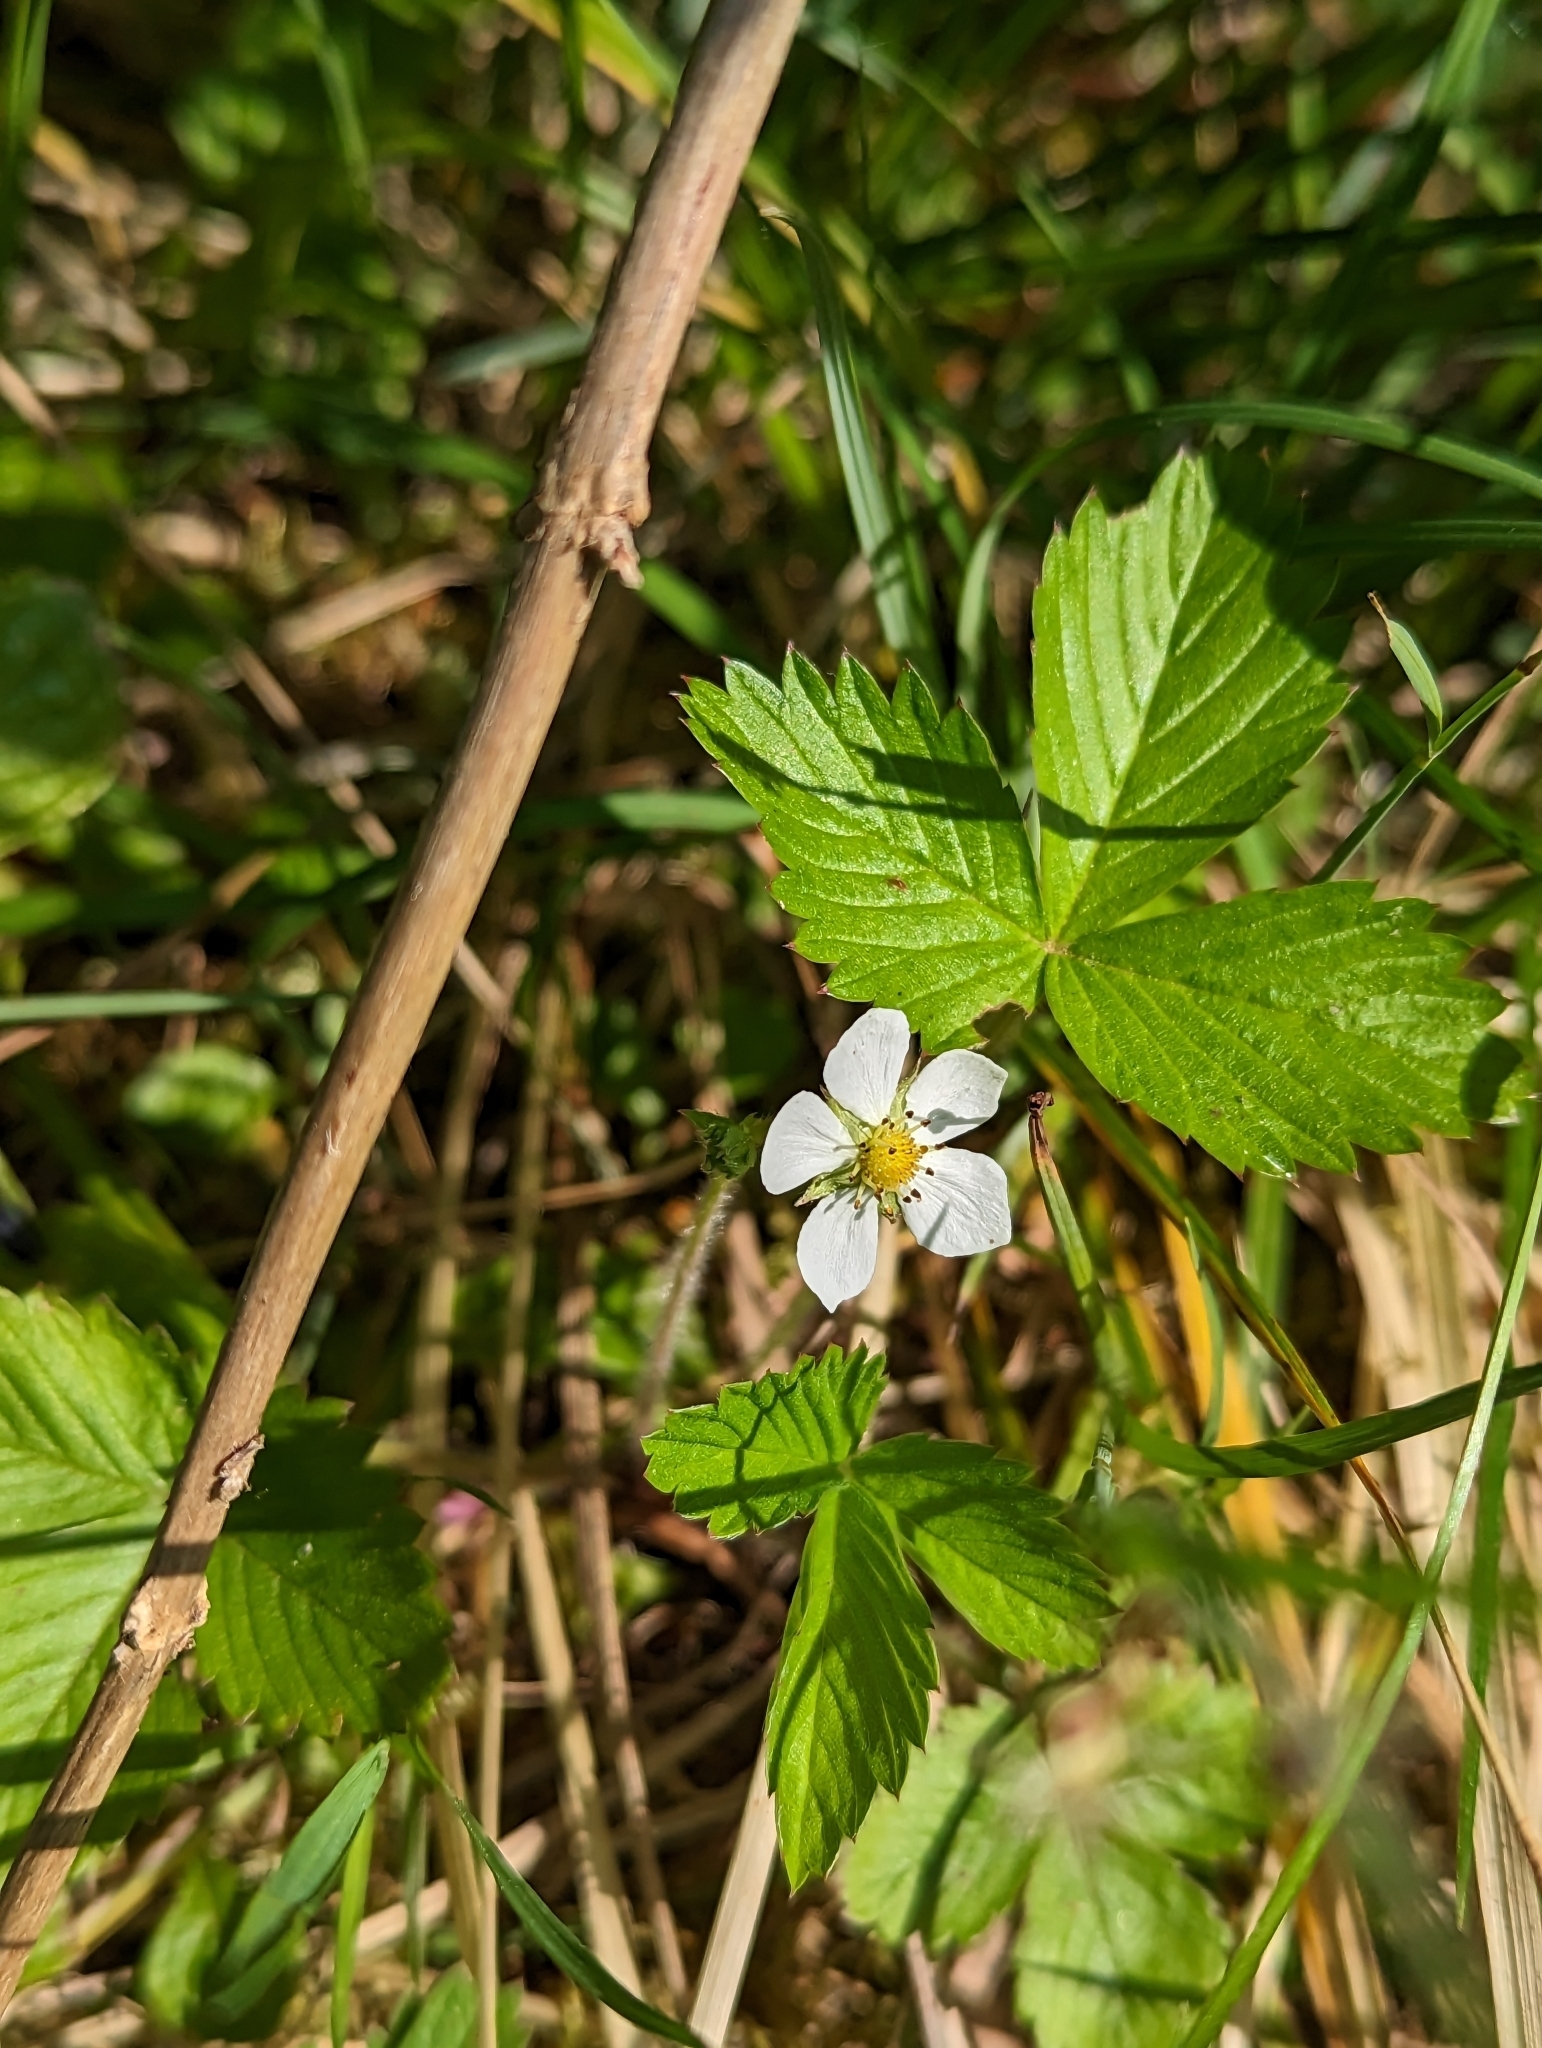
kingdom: Plantae
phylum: Tracheophyta
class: Magnoliopsida
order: Rosales
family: Rosaceae
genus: Fragaria
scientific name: Fragaria vesca
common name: Wild strawberry
